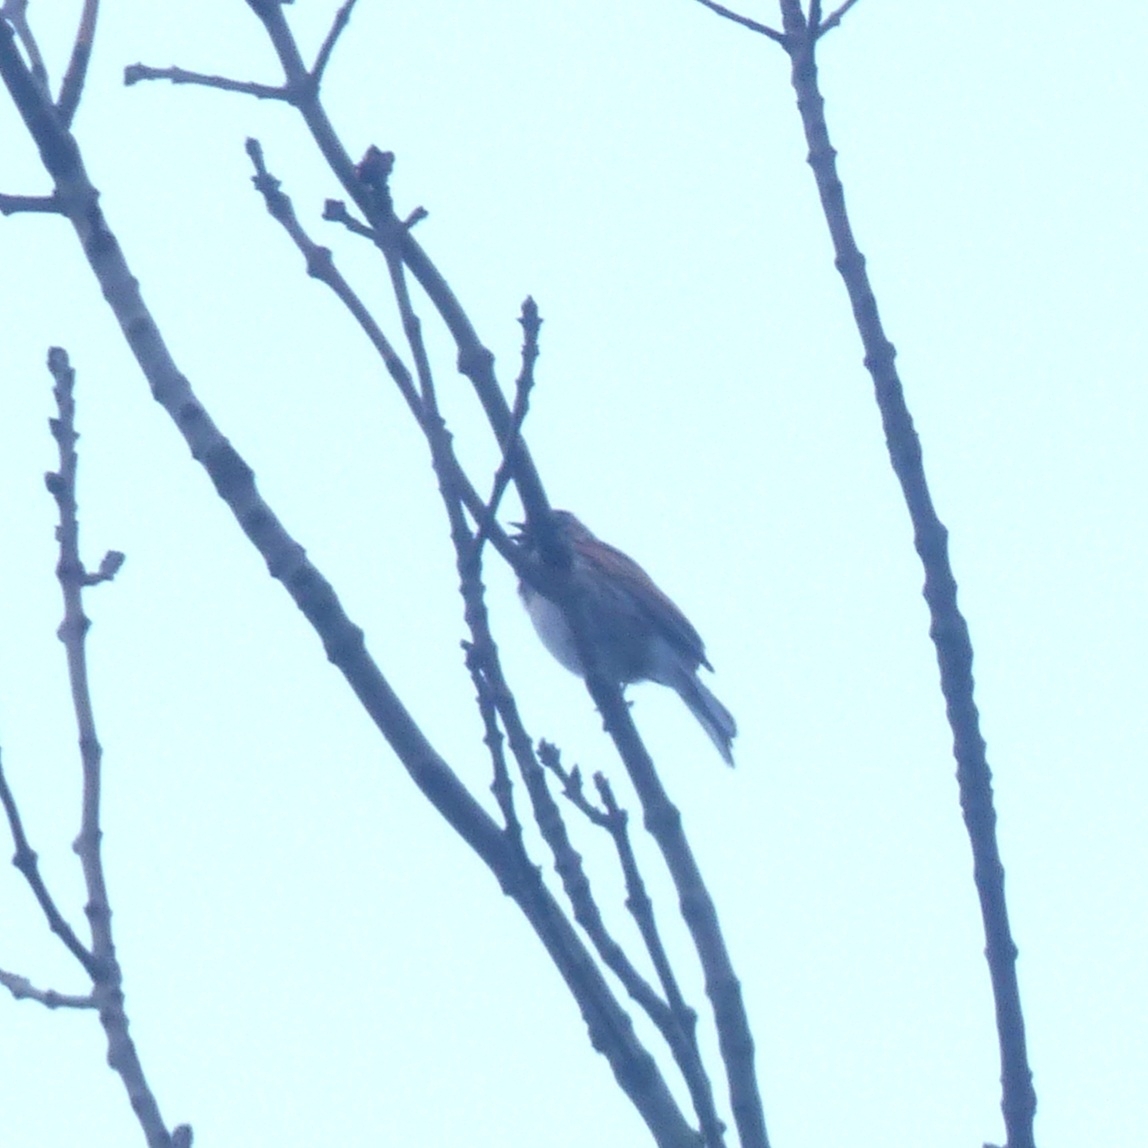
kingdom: Animalia
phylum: Chordata
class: Aves
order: Passeriformes
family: Emberizidae
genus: Emberiza
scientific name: Emberiza schoeniclus
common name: Reed bunting
